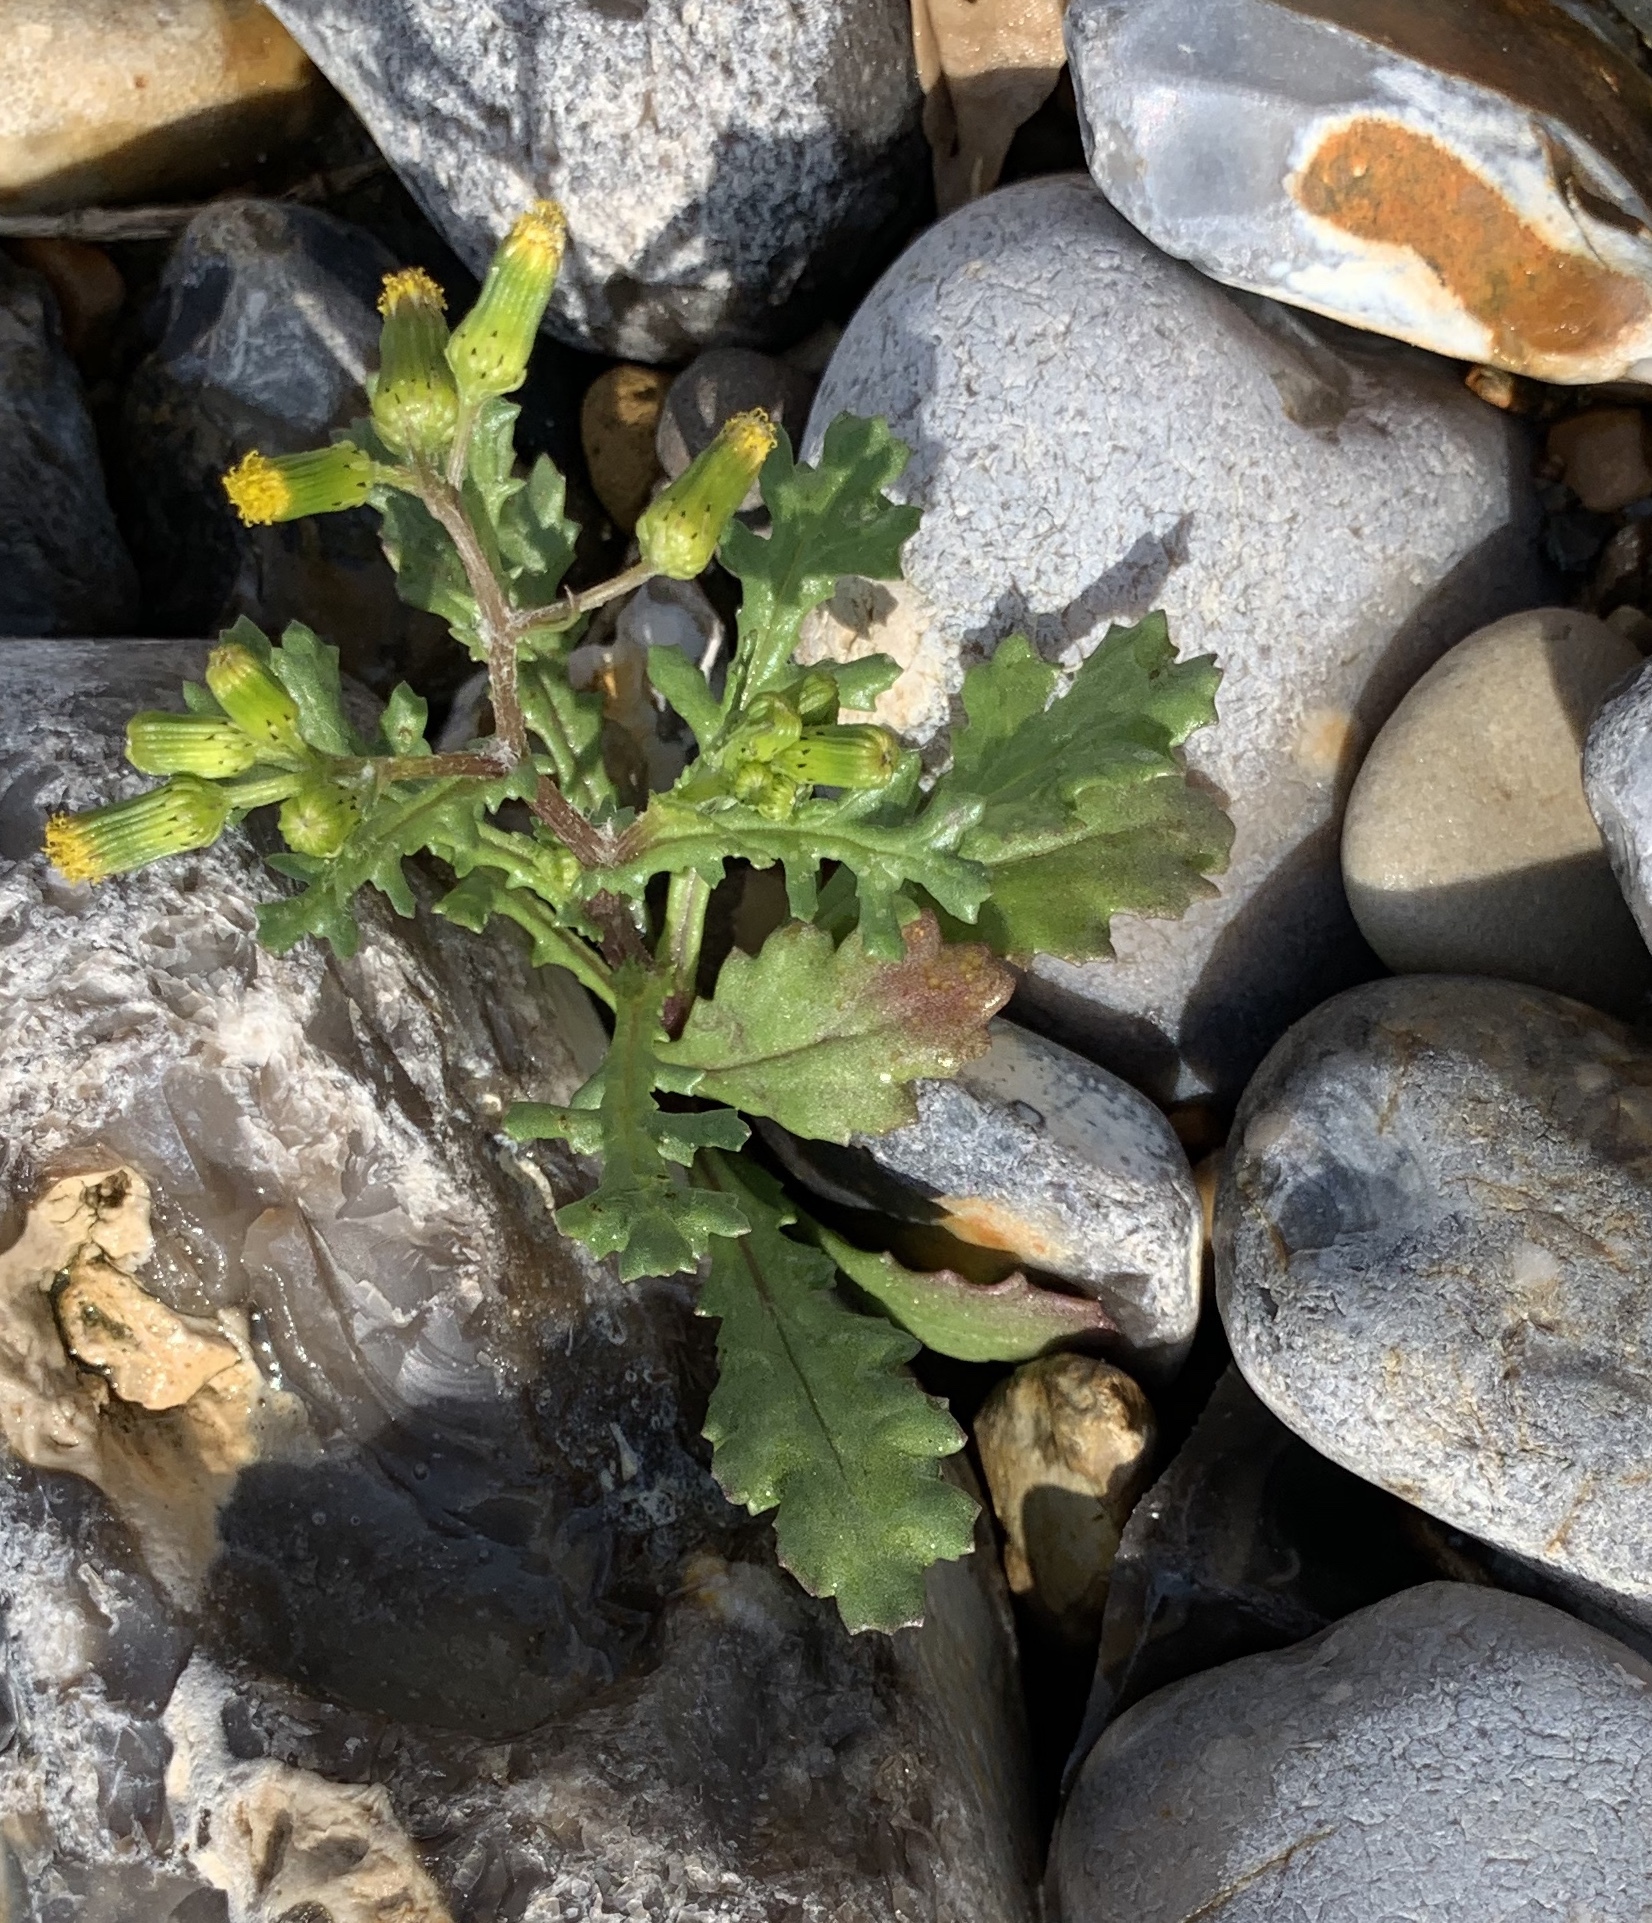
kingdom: Plantae
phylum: Tracheophyta
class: Magnoliopsida
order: Asterales
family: Asteraceae
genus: Senecio
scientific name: Senecio vulgaris
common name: Old-man-in-the-spring
